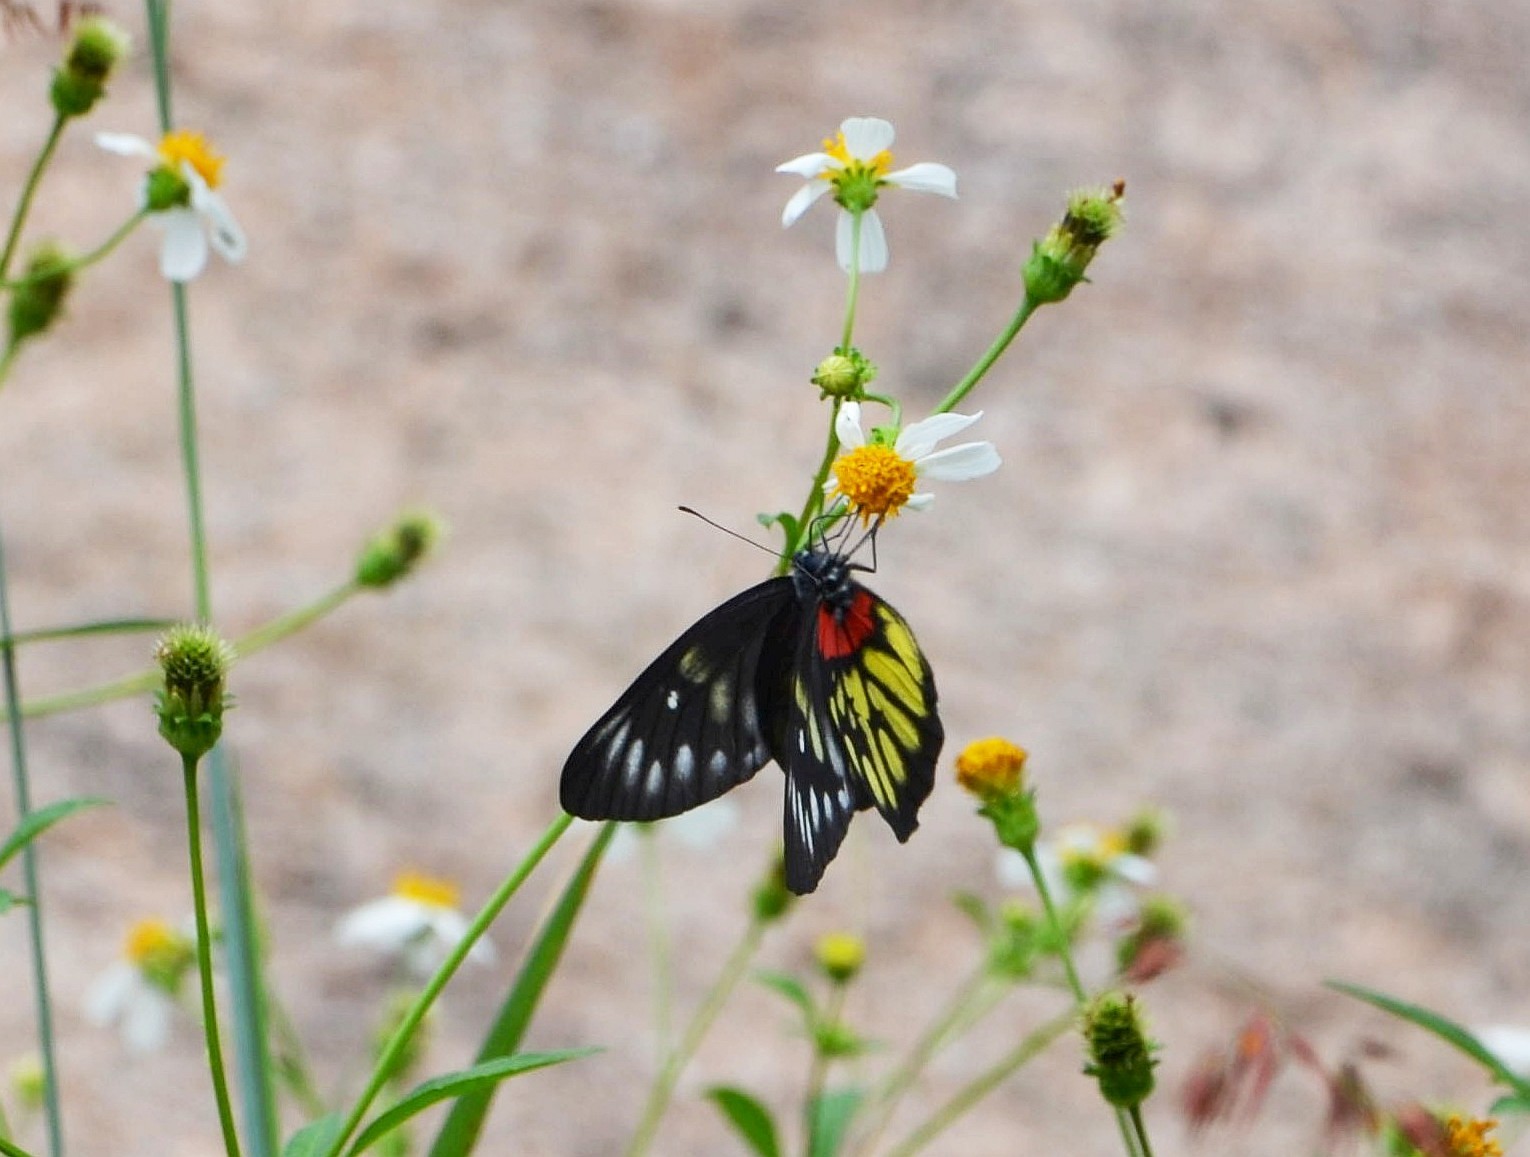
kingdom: Animalia
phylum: Arthropoda
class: Insecta
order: Lepidoptera
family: Pieridae
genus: Delias
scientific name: Delias pasithoe
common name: Red-base jezebel
